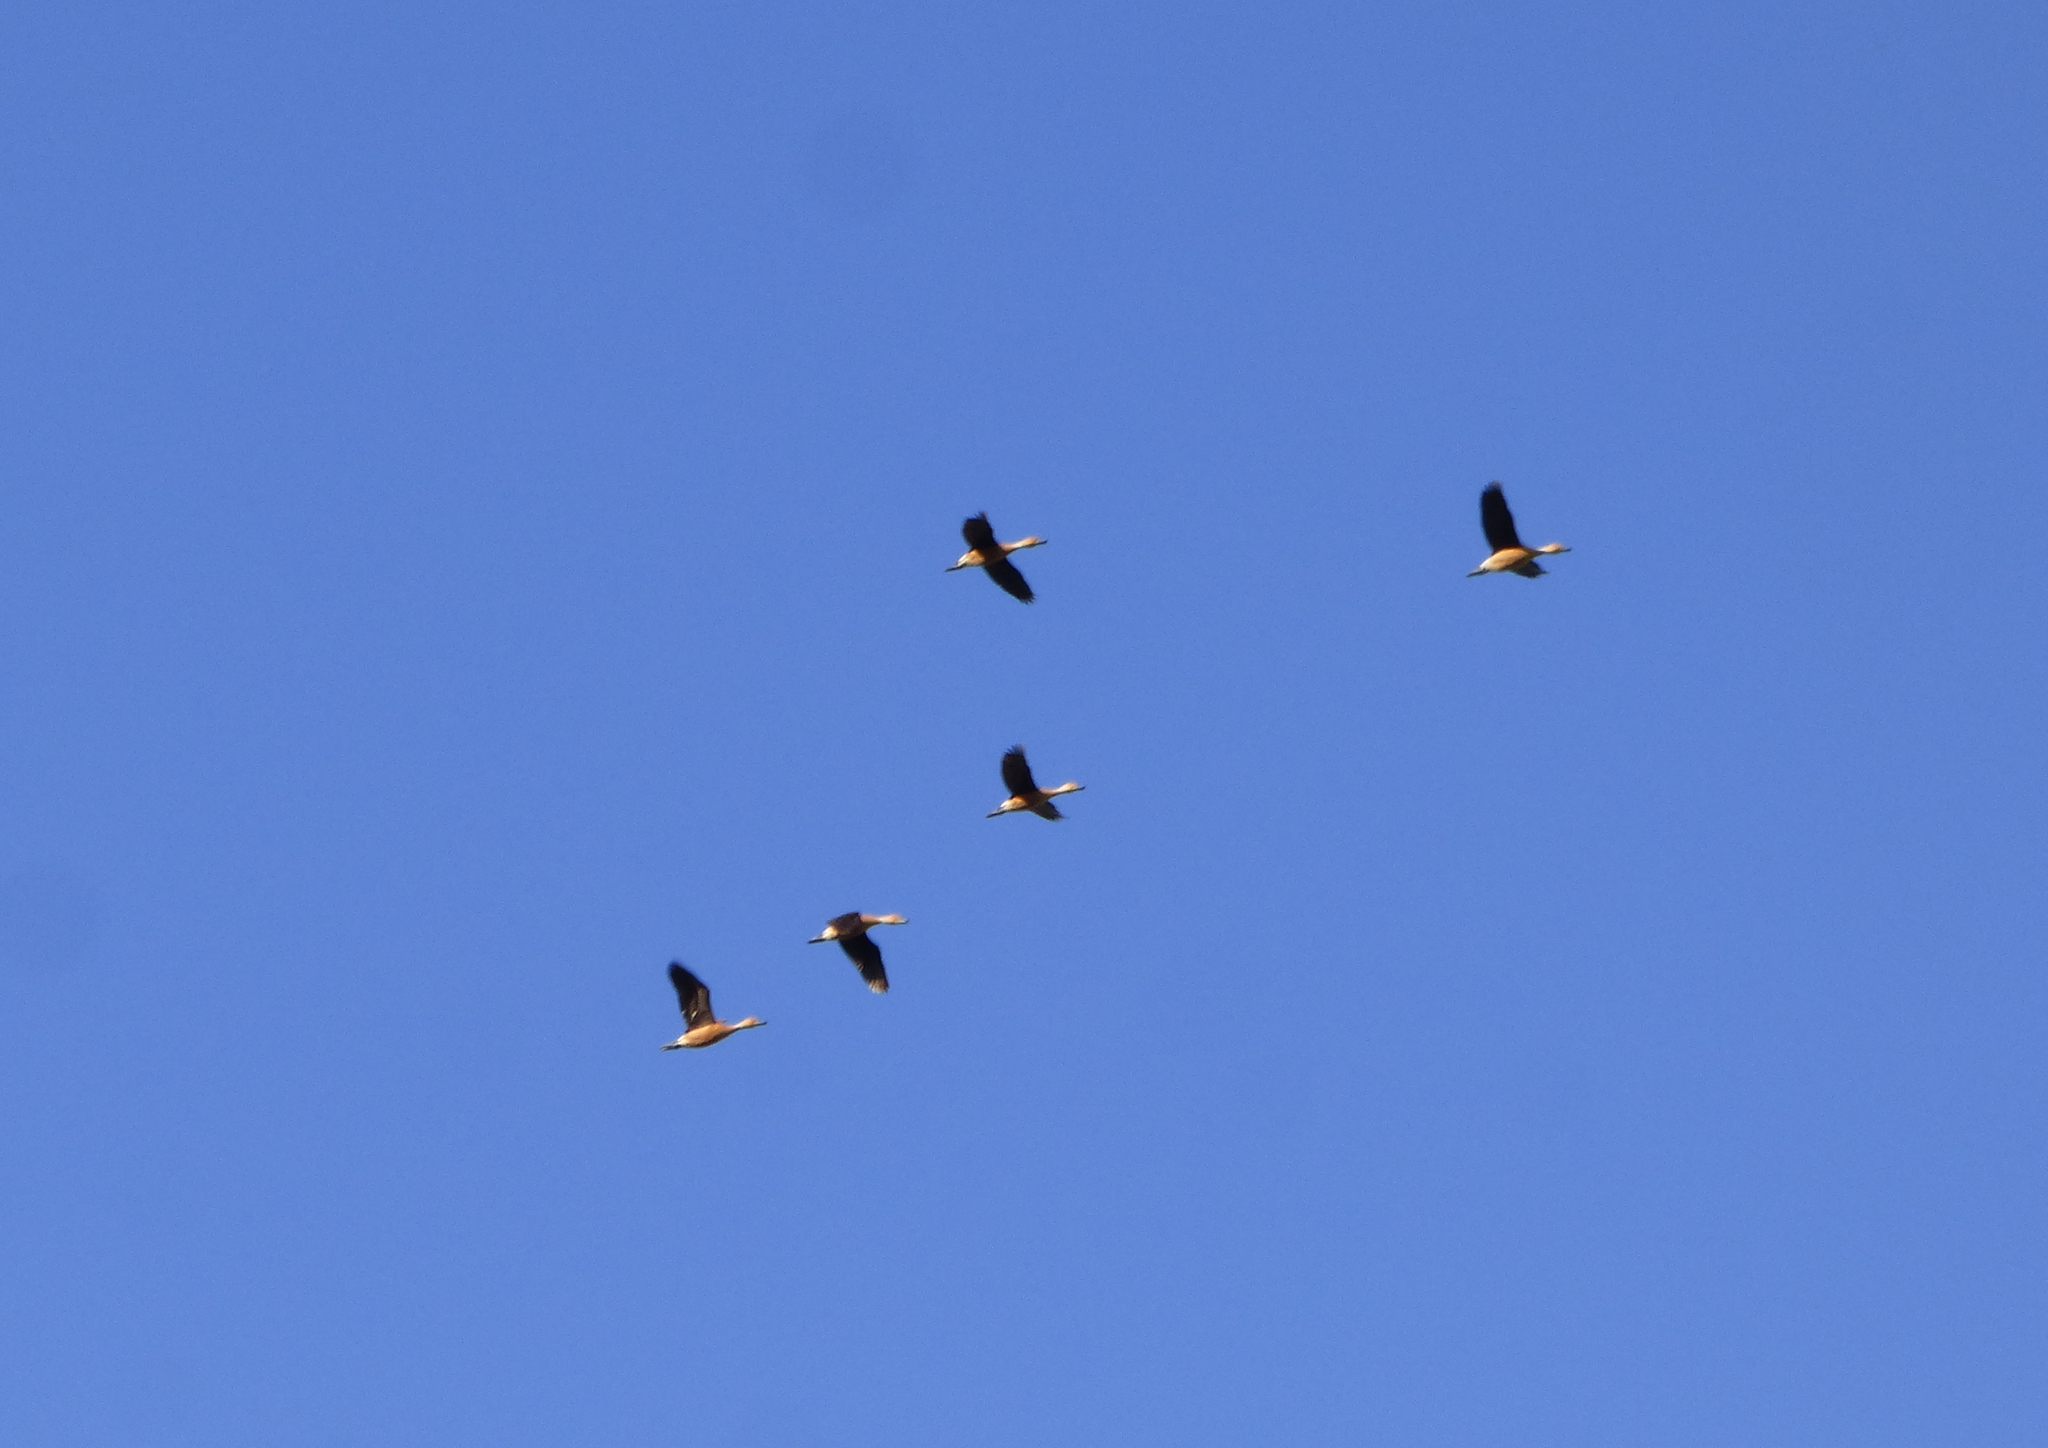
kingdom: Animalia
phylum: Chordata
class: Aves
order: Anseriformes
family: Anatidae
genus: Dendrocygna
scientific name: Dendrocygna bicolor
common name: Fulvous whistling duck
